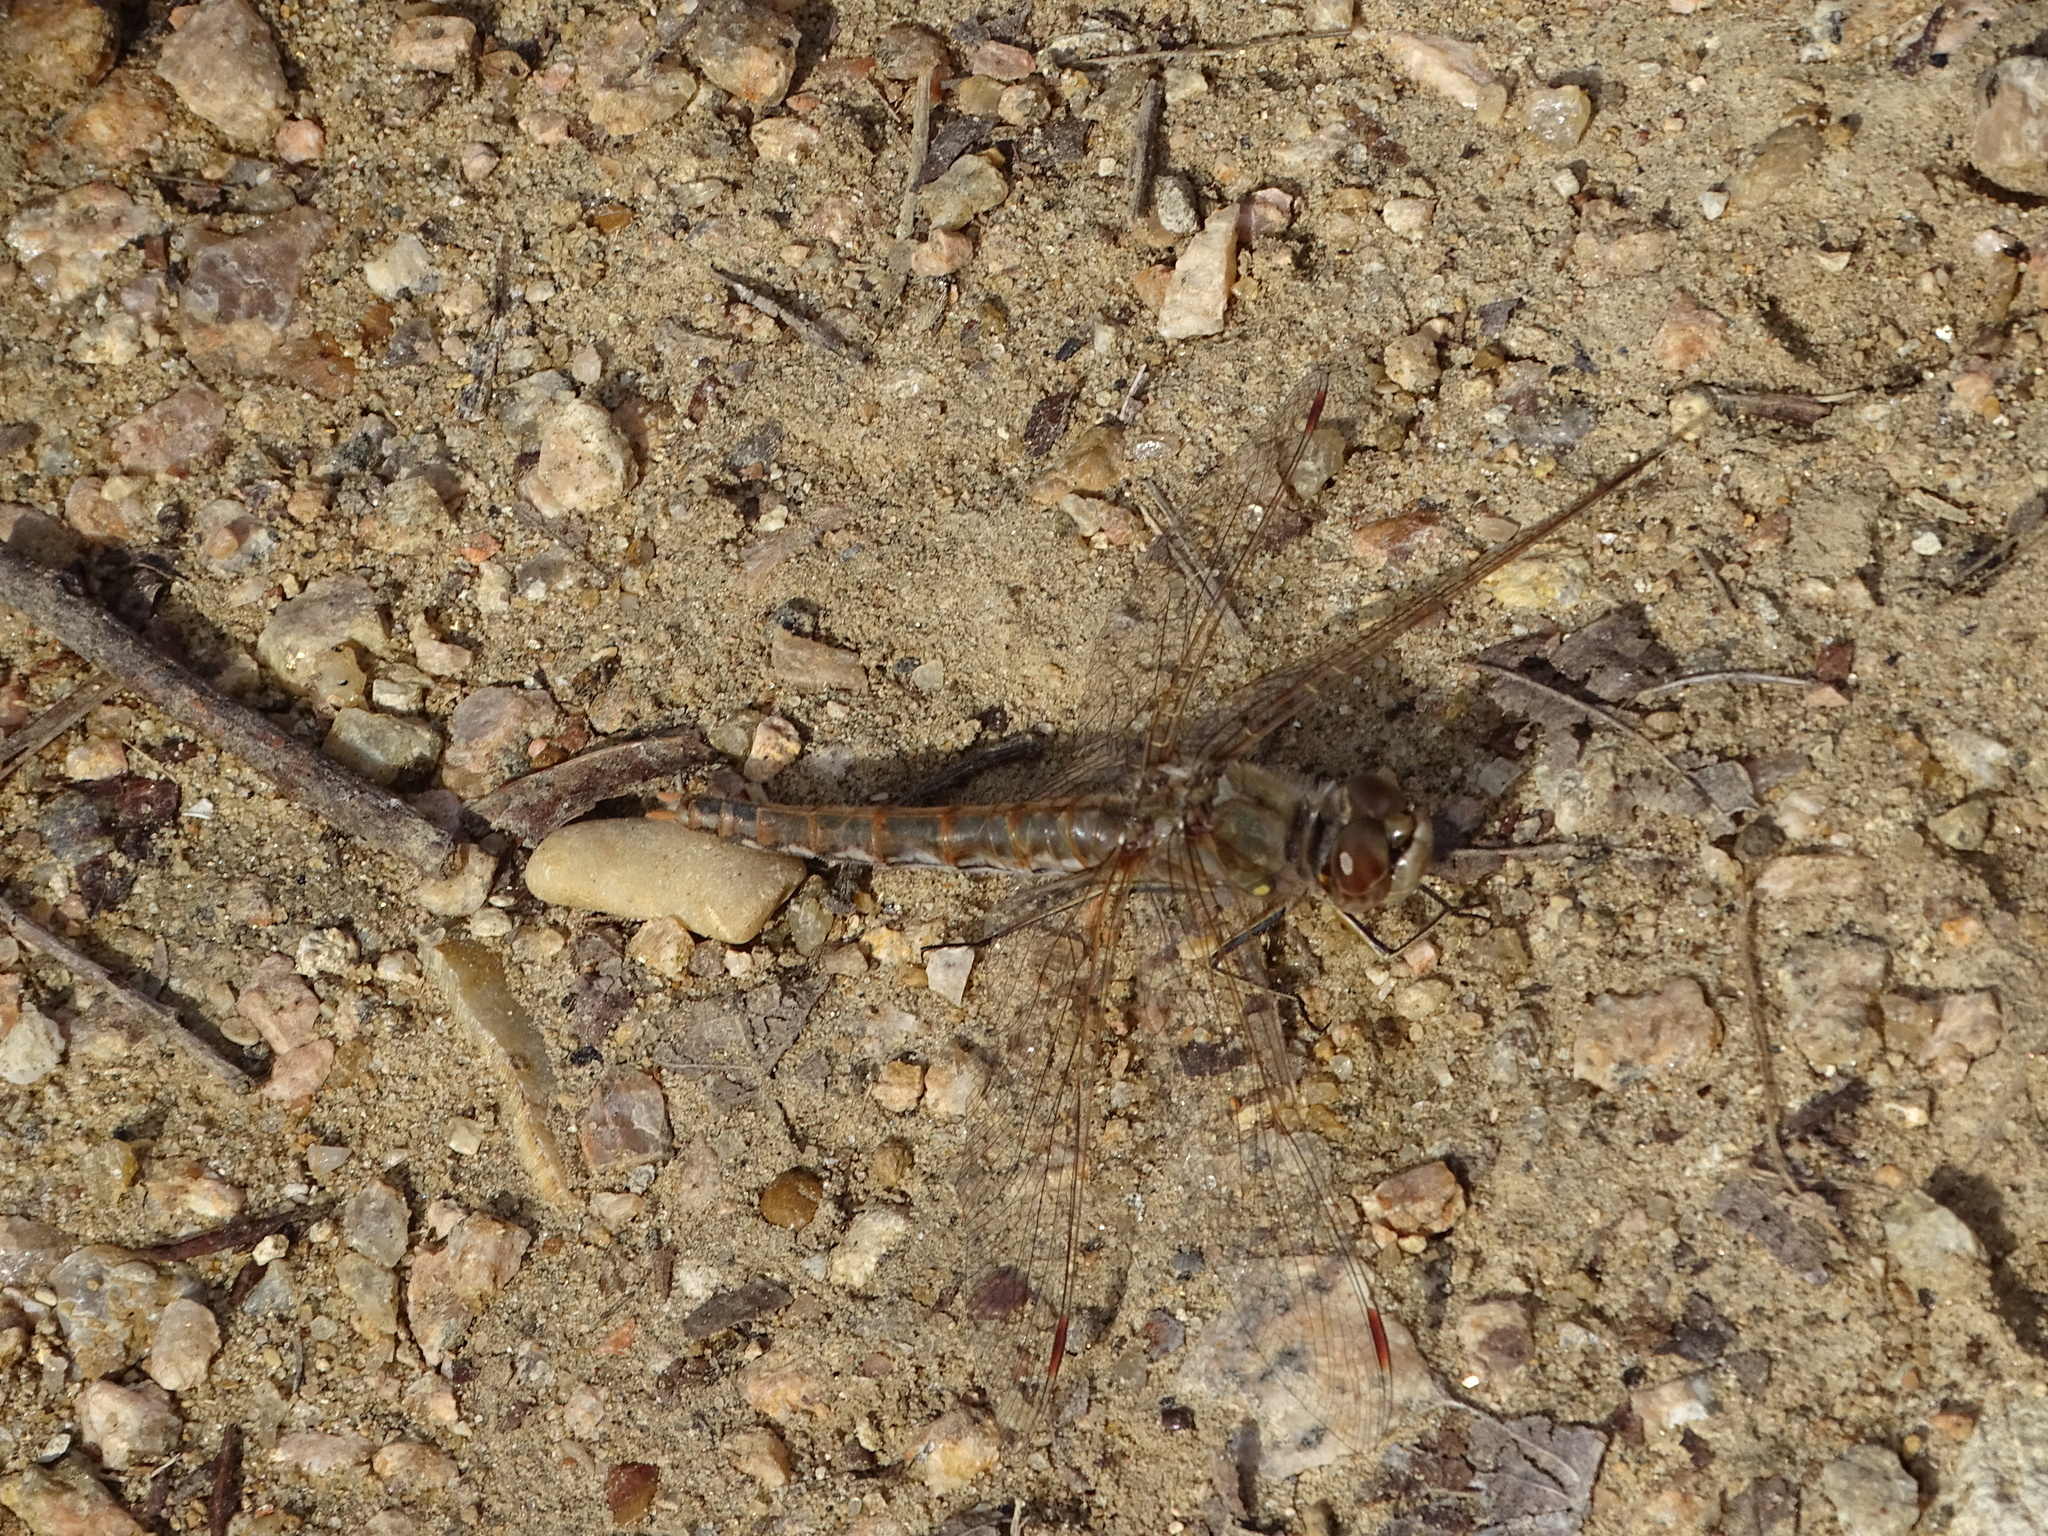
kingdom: Animalia
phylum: Arthropoda
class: Insecta
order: Odonata
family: Libellulidae
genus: Sympetrum
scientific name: Sympetrum corruptum
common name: Variegated meadowhawk
